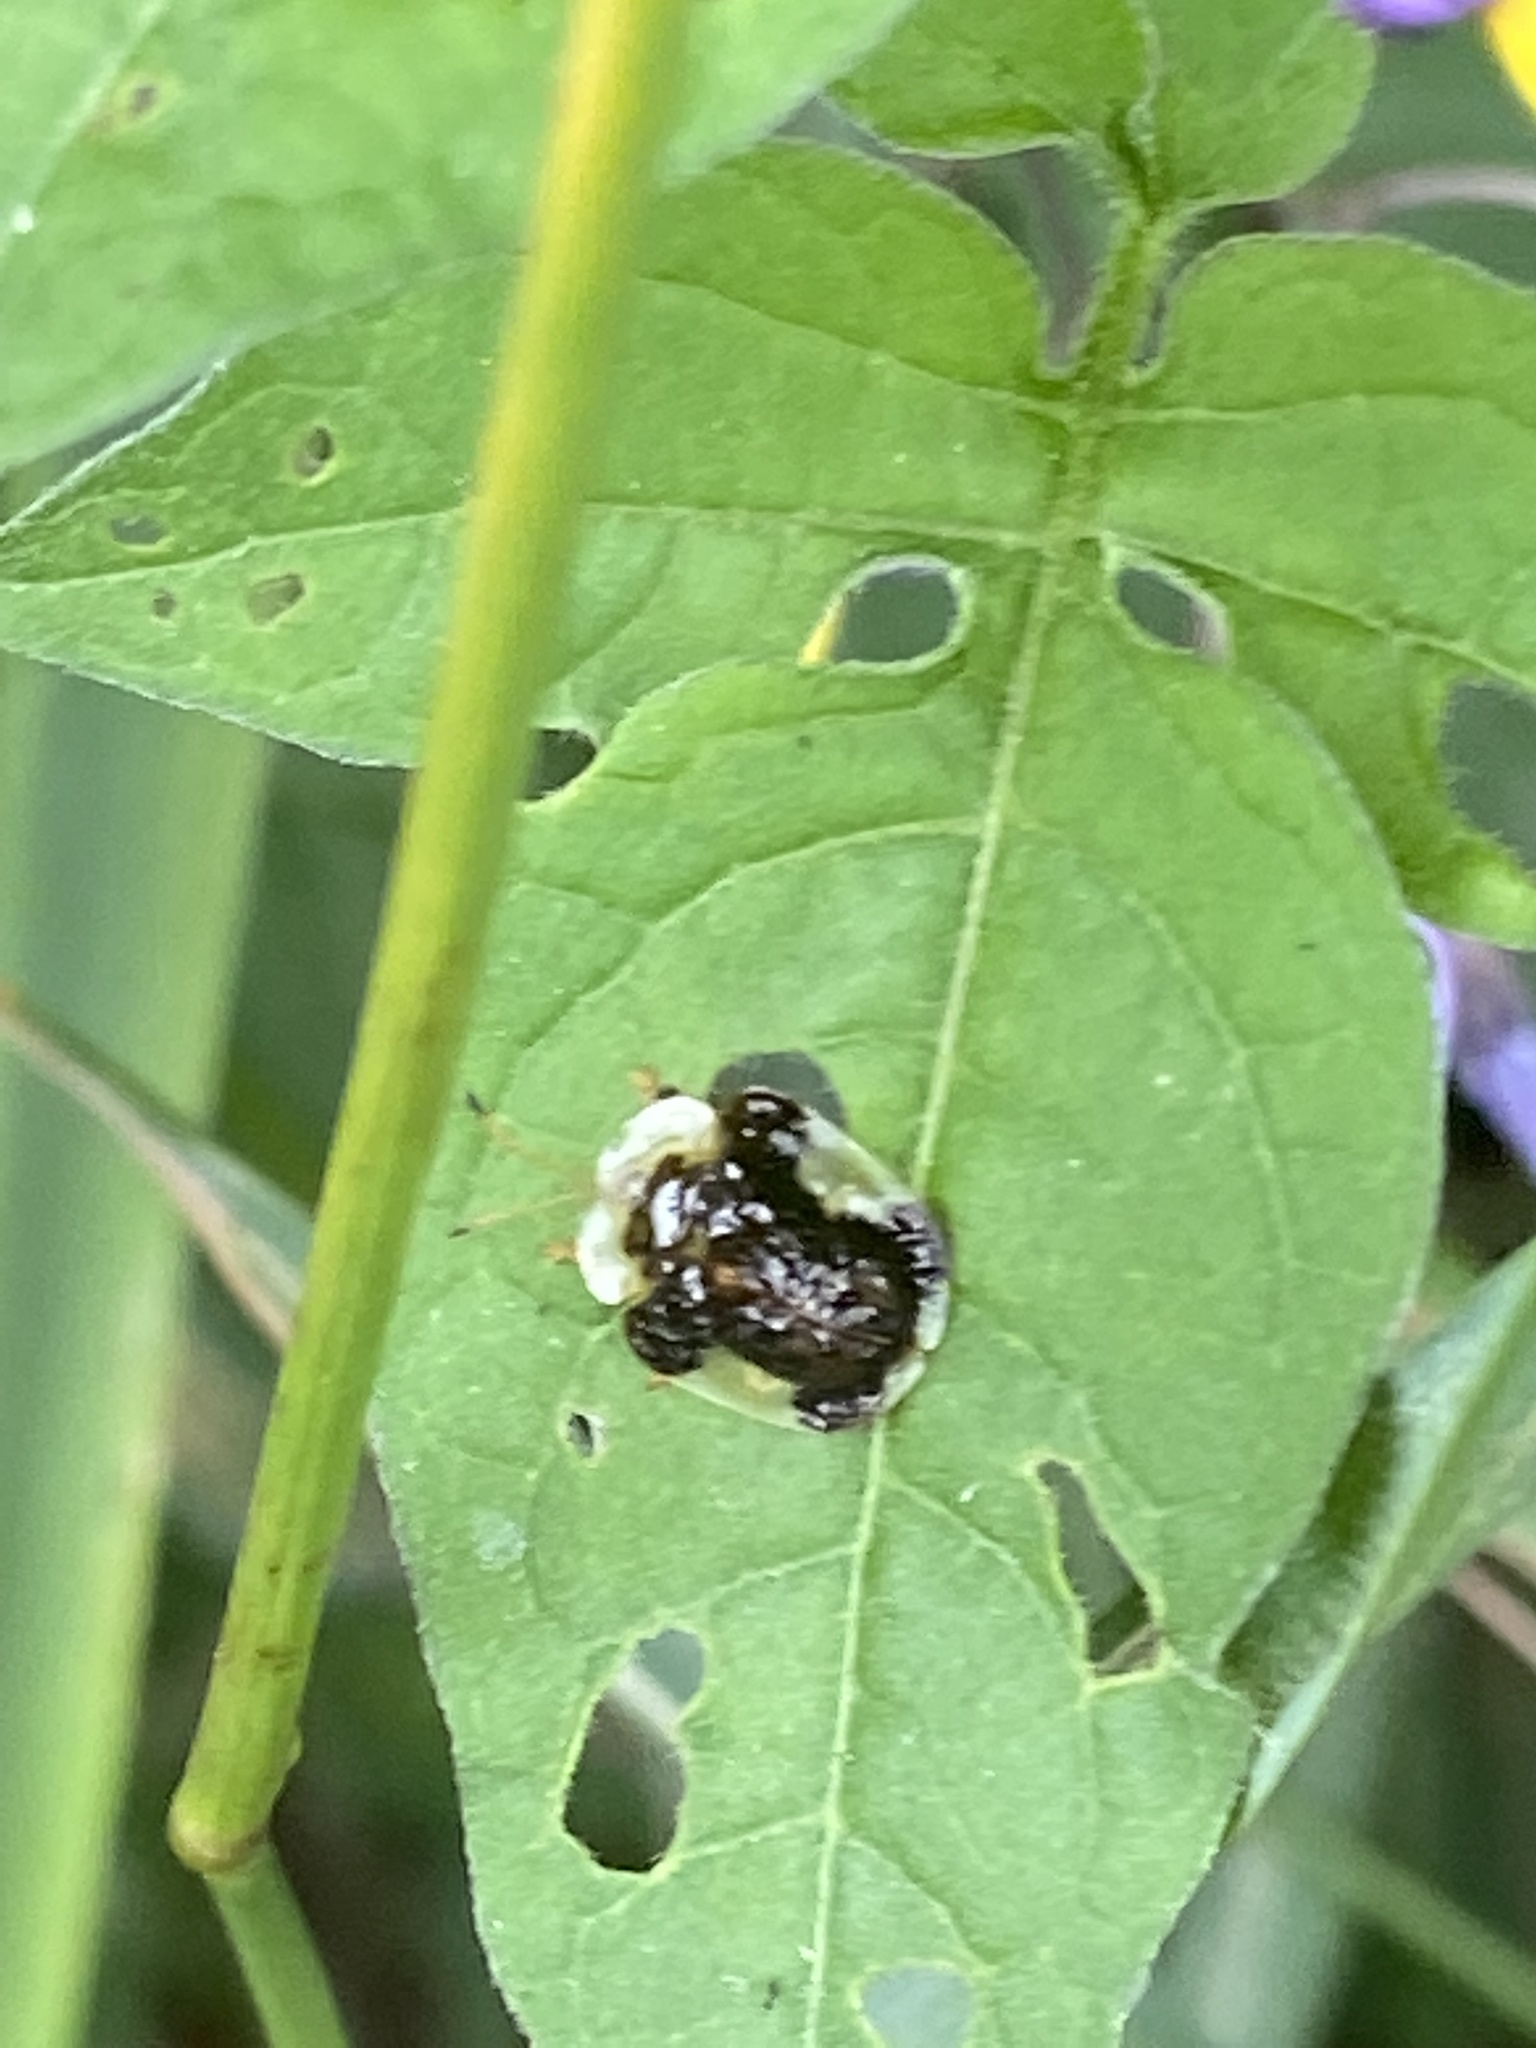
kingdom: Animalia
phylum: Arthropoda
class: Insecta
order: Coleoptera
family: Chrysomelidae
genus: Helocassis
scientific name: Helocassis clavata
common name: Clavate tortoise beetle
